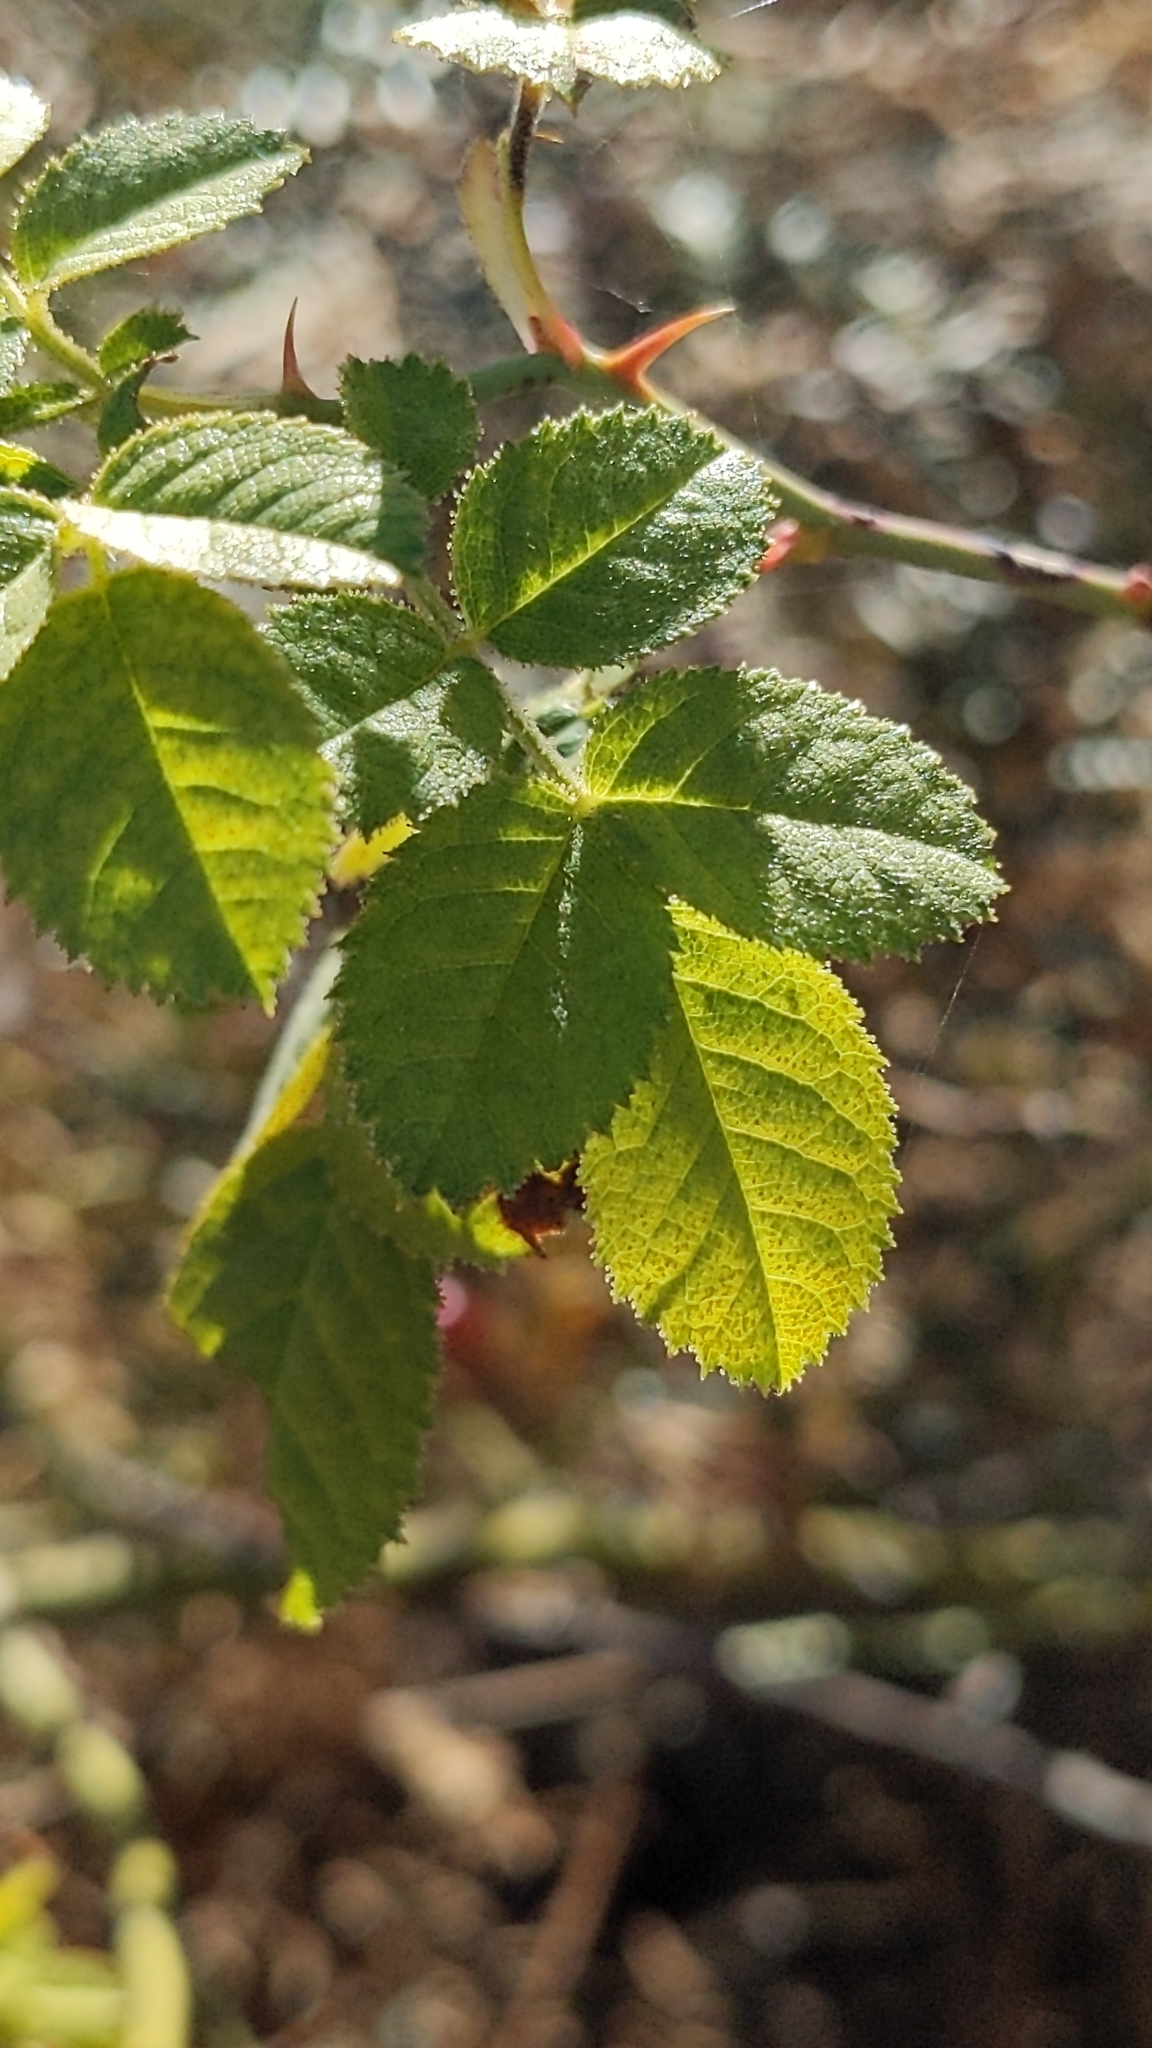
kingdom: Plantae
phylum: Tracheophyta
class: Magnoliopsida
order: Rosales
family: Rosaceae
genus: Rosa
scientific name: Rosa rubiginosa
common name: Sweet-briar
